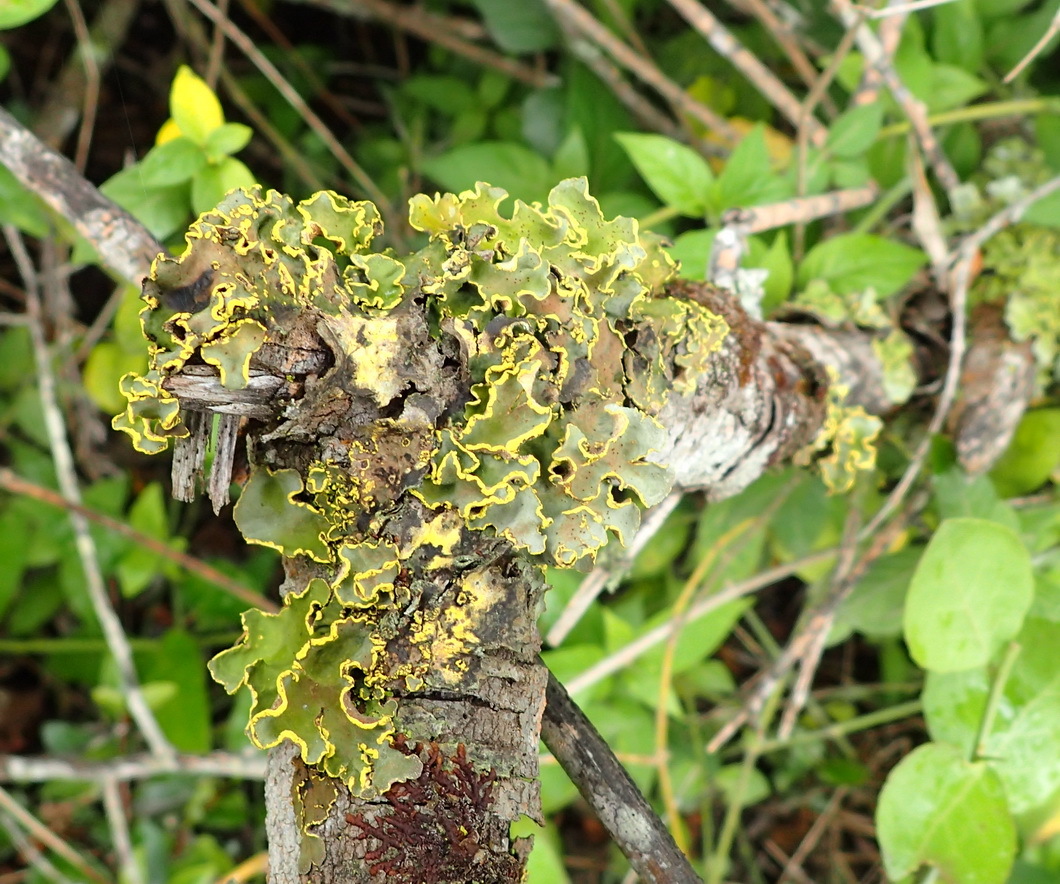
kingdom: Fungi
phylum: Ascomycota
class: Lecanoromycetes
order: Peltigerales
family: Lobariaceae
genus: Pseudocyphellaria
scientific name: Pseudocyphellaria aurata
